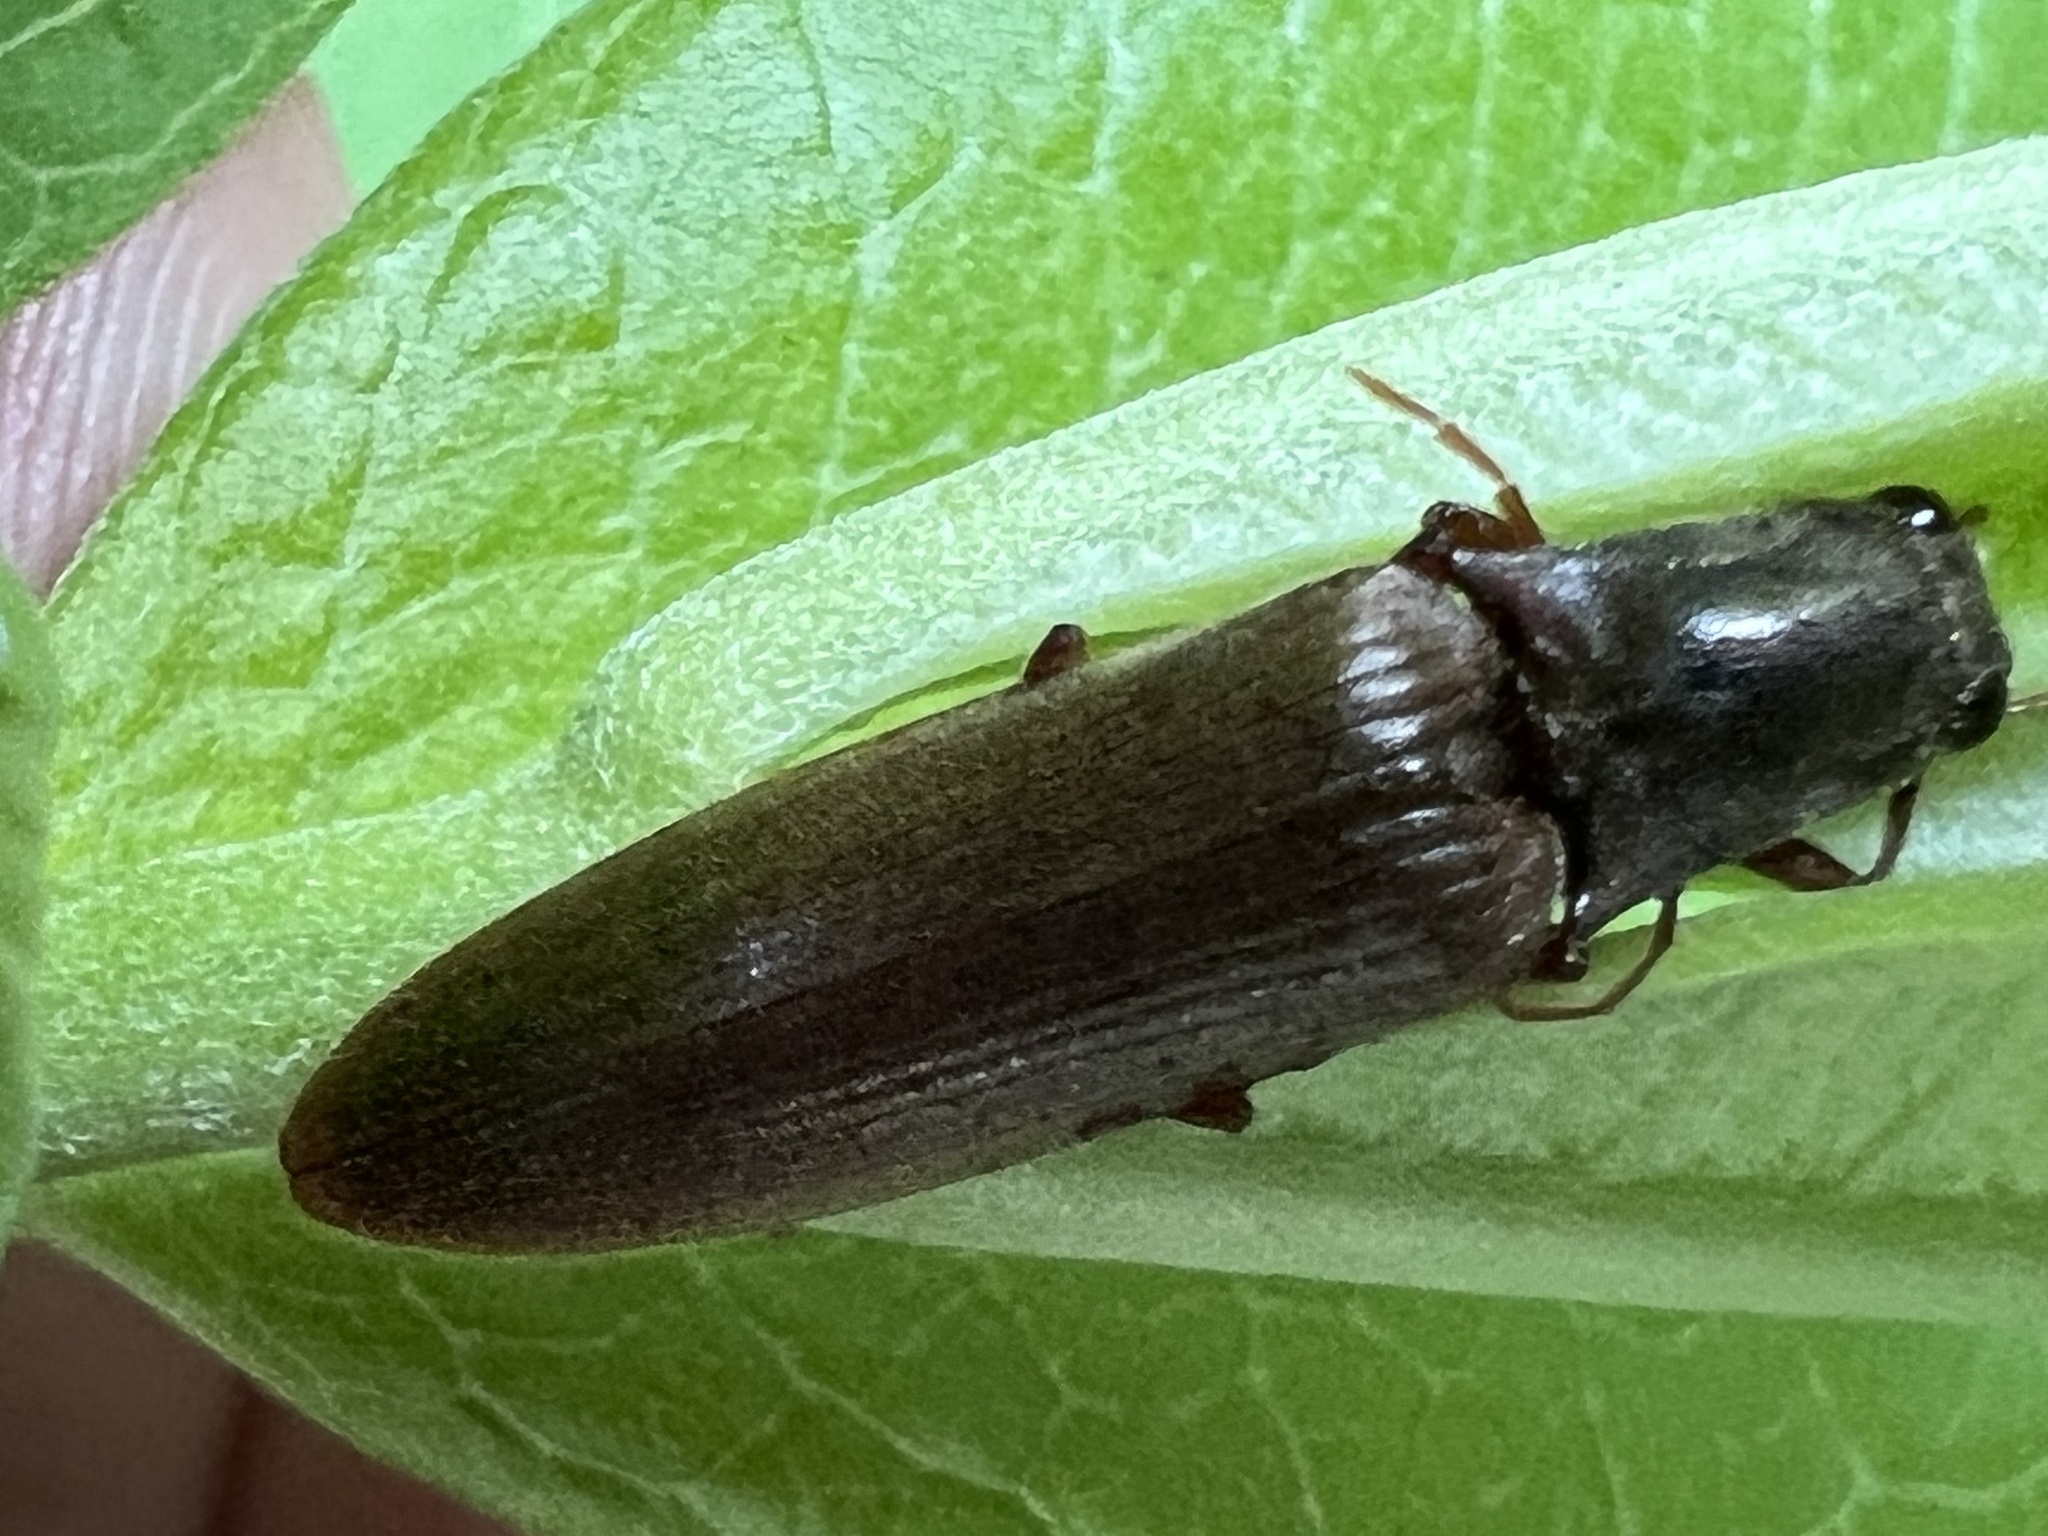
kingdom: Animalia
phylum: Arthropoda
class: Insecta
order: Coleoptera
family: Elateridae
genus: Proludius
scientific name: Proludius pyrros
